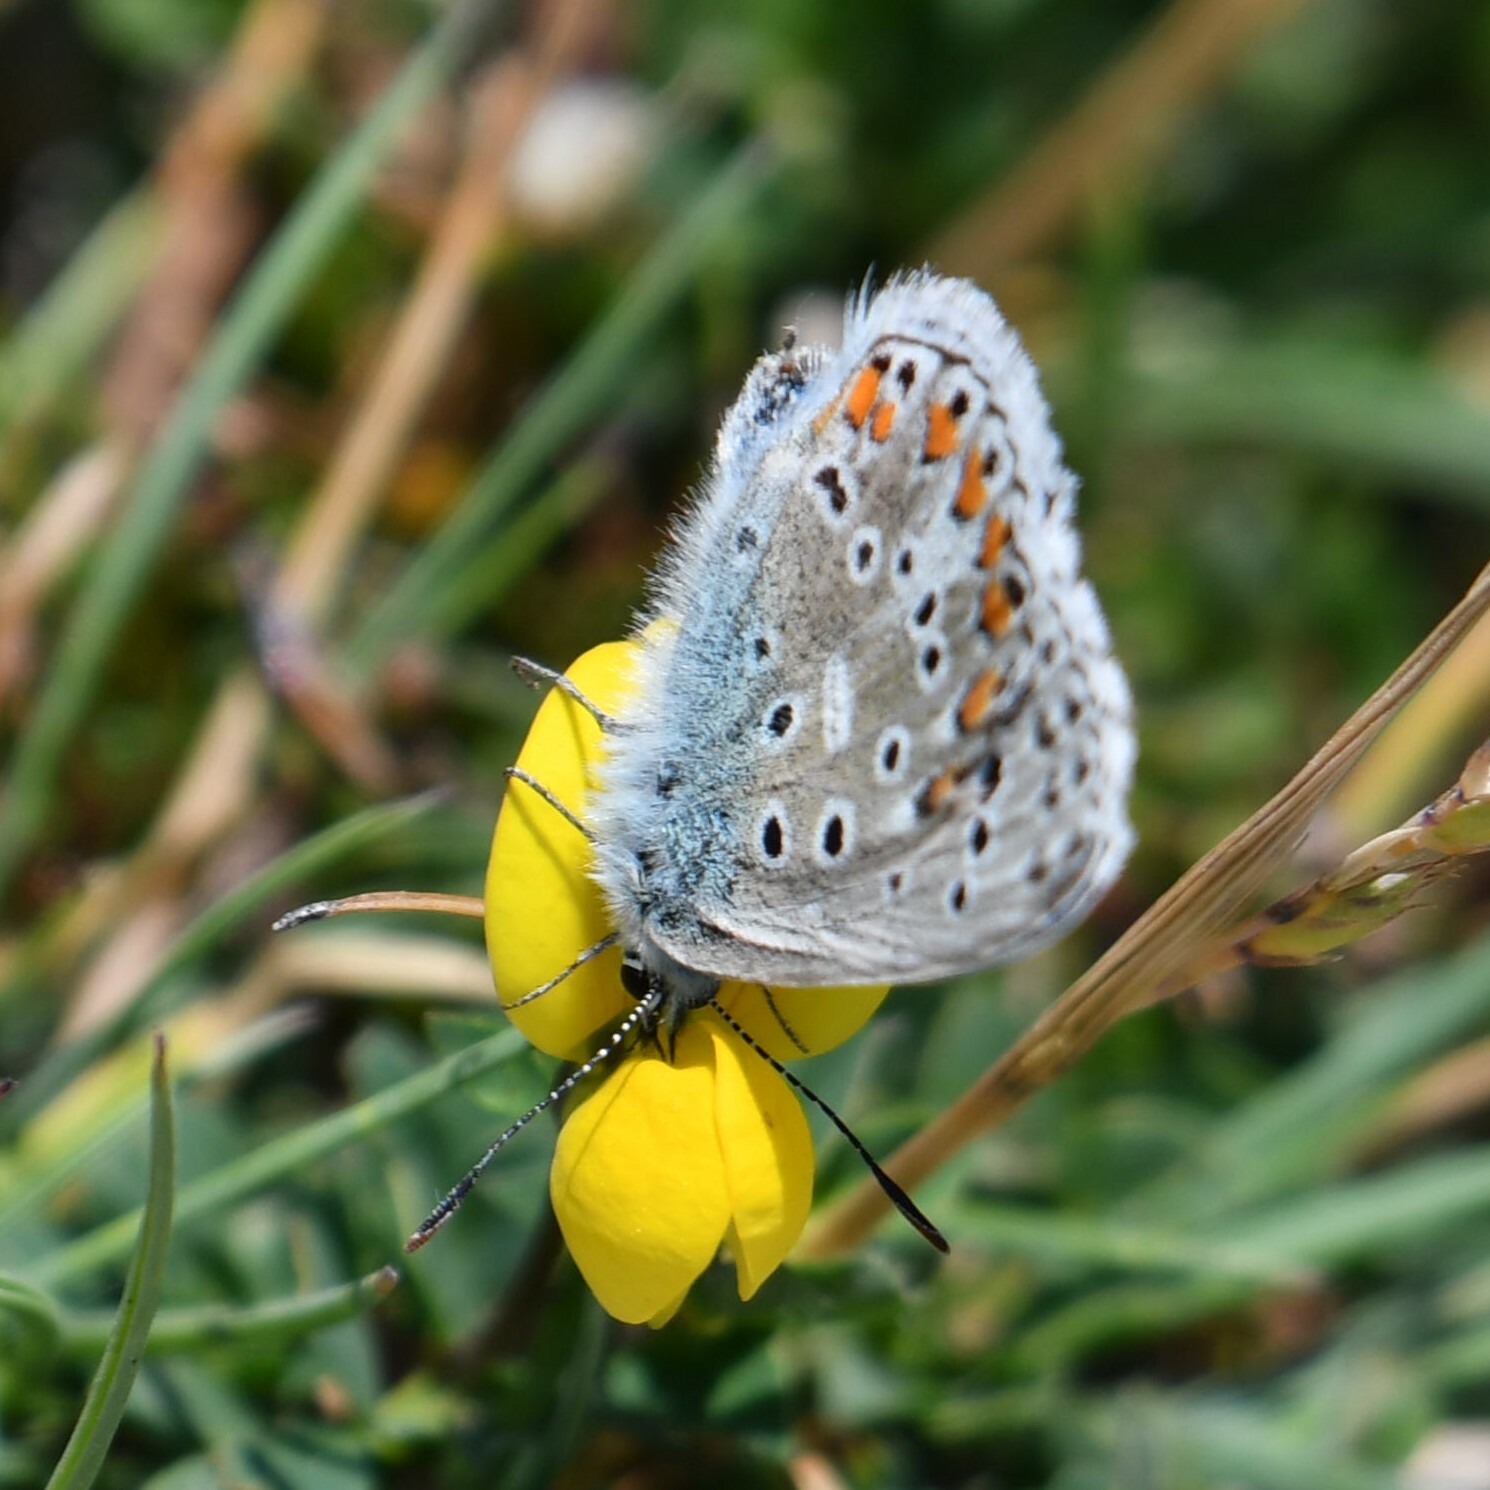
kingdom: Animalia
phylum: Arthropoda
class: Insecta
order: Lepidoptera
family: Lycaenidae
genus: Polyommatus
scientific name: Polyommatus icarus
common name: Common blue
